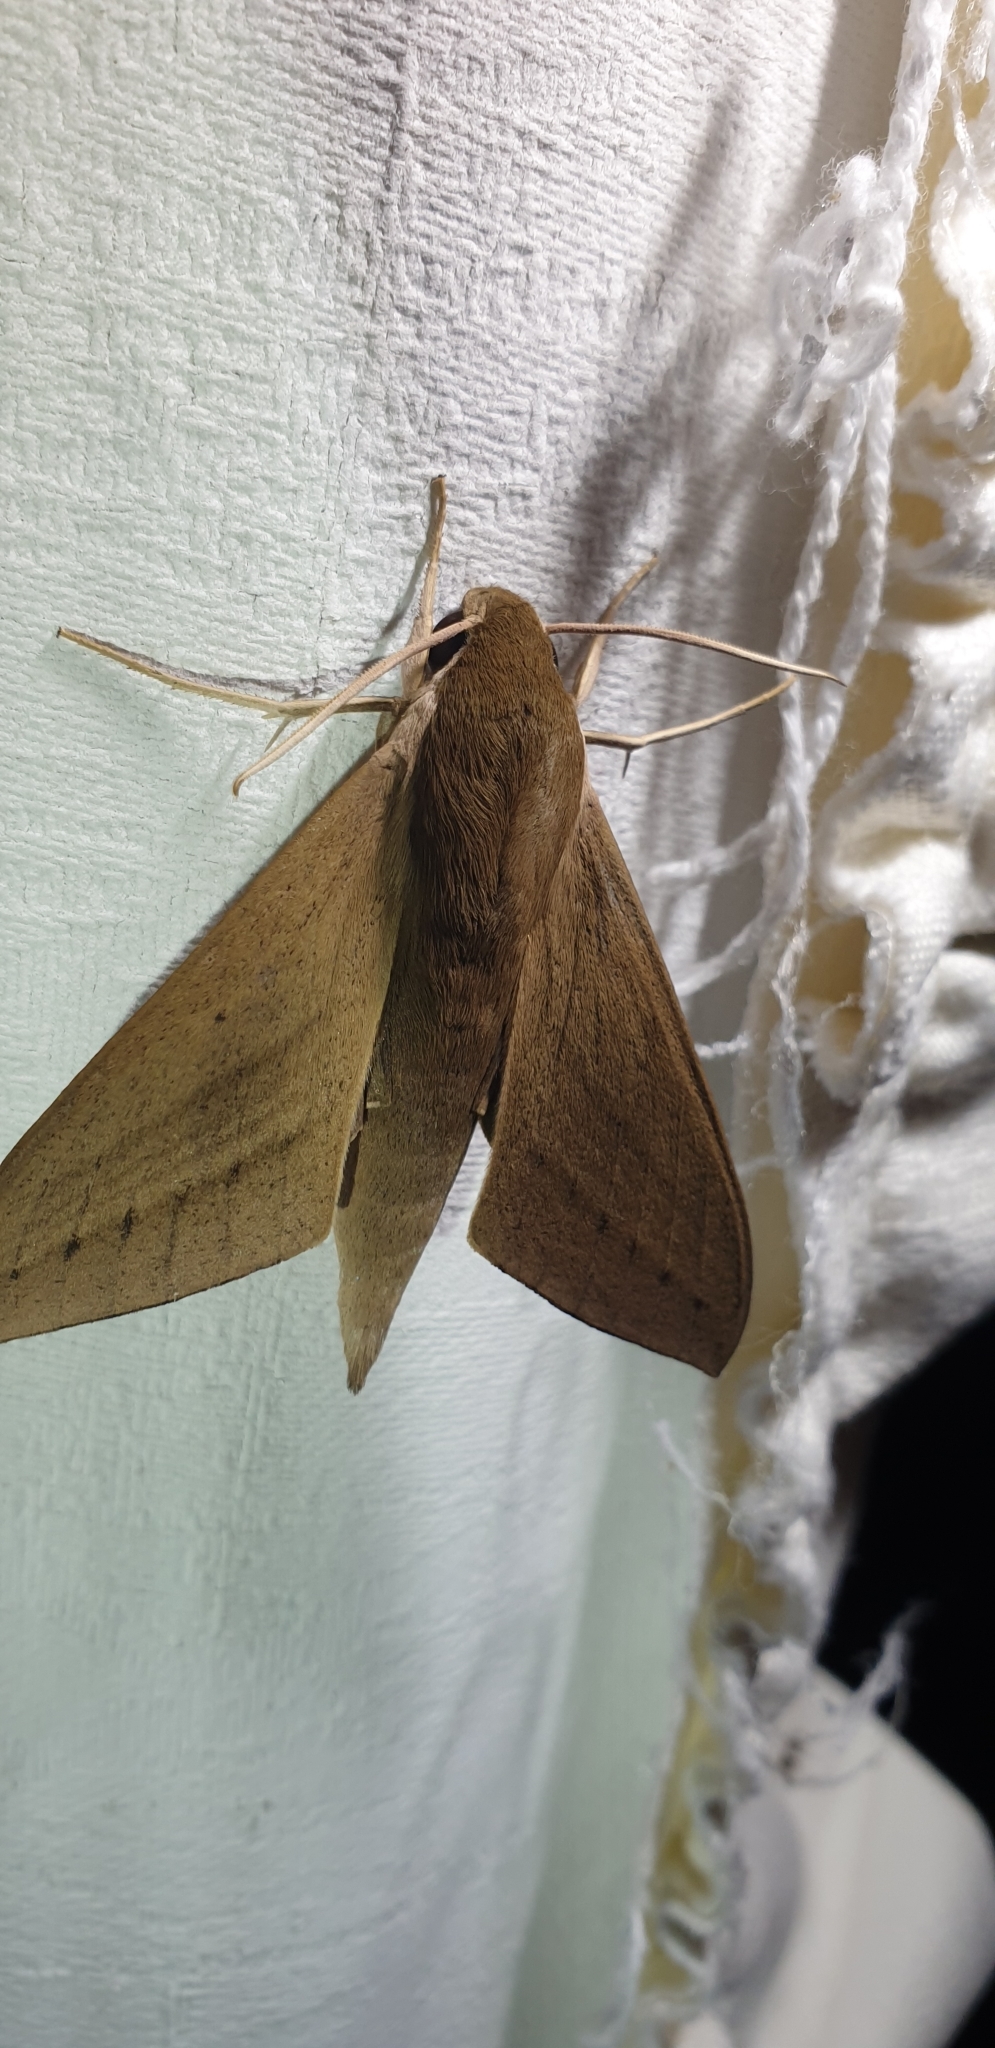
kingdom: Animalia
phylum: Arthropoda
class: Insecta
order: Lepidoptera
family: Sphingidae
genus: Theretra
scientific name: Theretra latreillii
